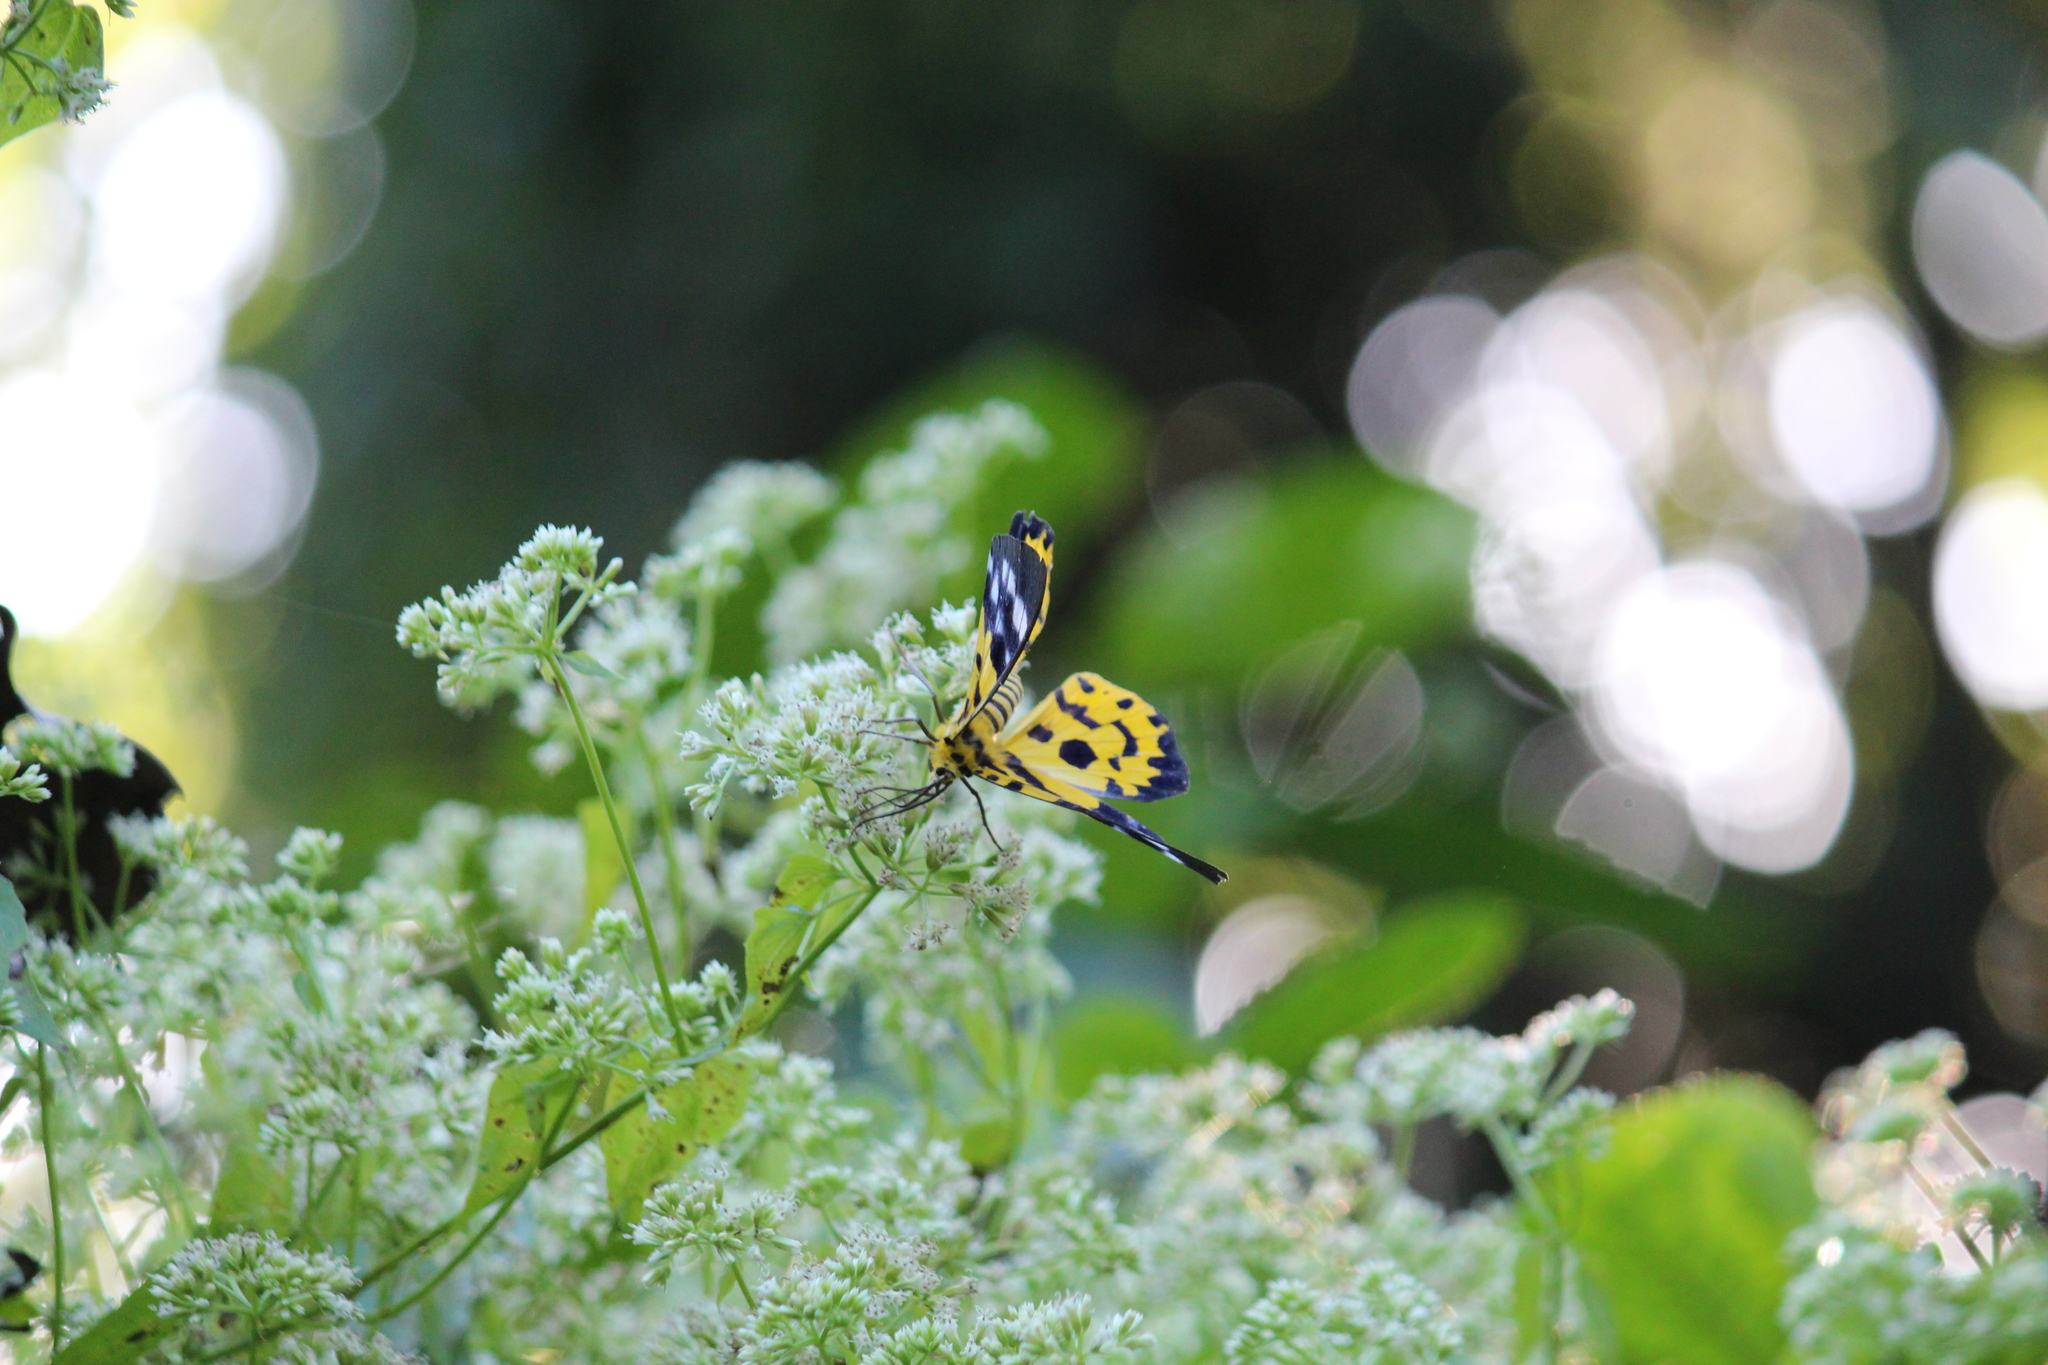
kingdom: Animalia
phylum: Arthropoda
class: Insecta
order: Lepidoptera
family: Geometridae
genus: Dysphania
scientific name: Dysphania militaris
